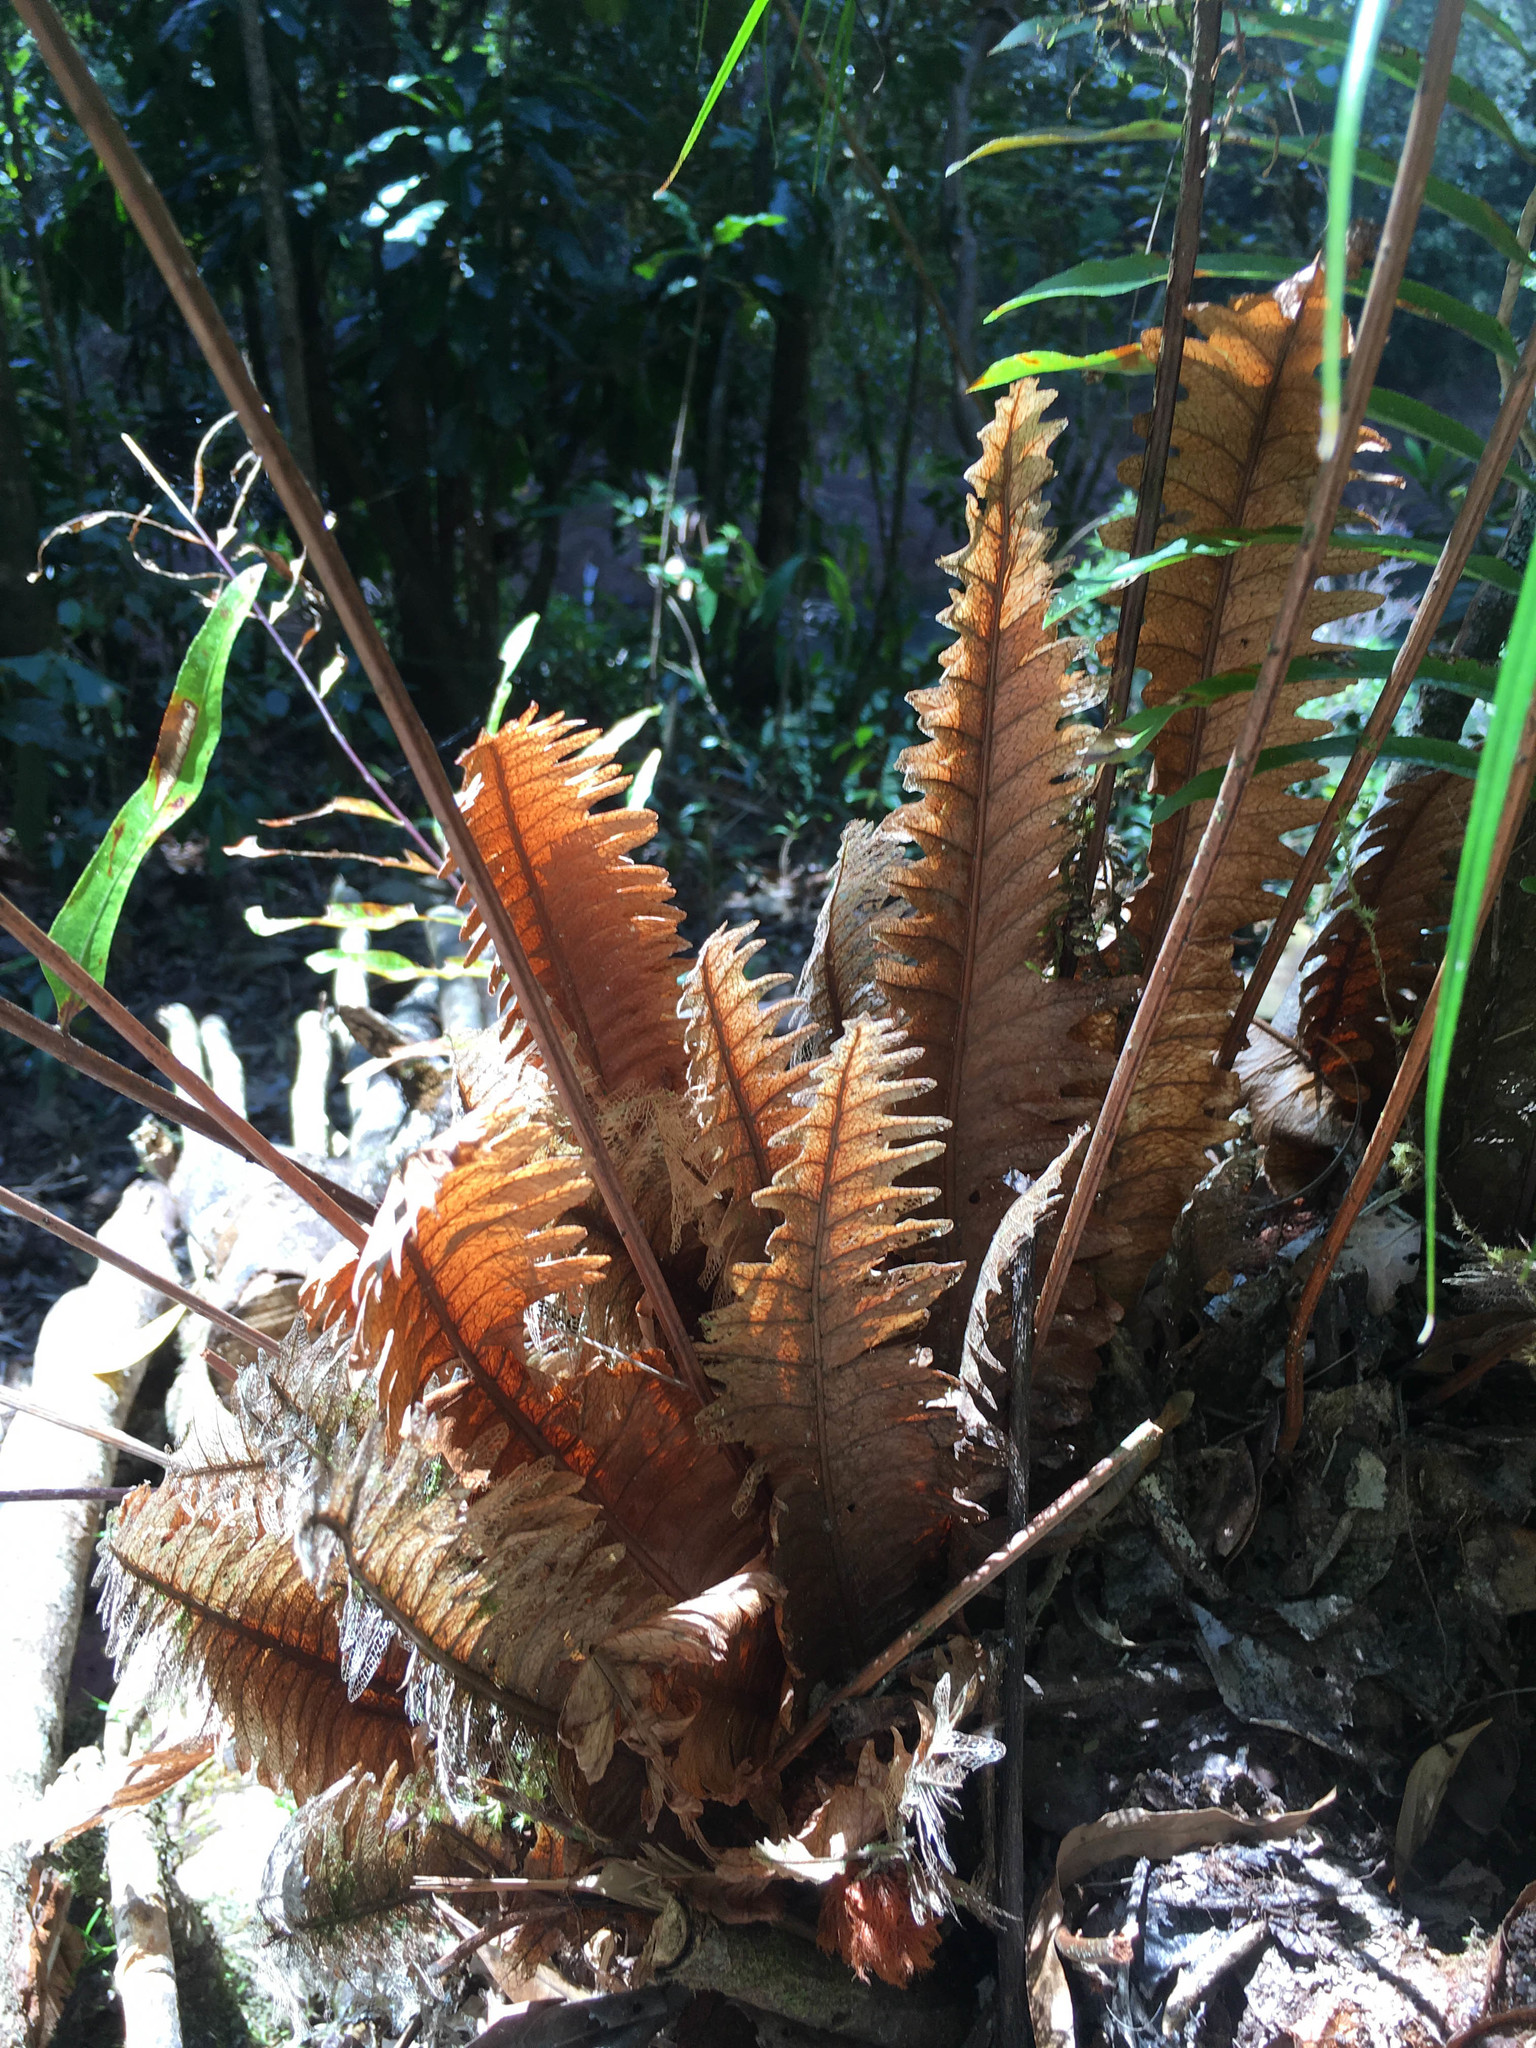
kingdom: Plantae
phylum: Tracheophyta
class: Polypodiopsida
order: Polypodiales
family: Polypodiaceae
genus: Drynaria
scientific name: Drynaria rigidula
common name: Basket fern
